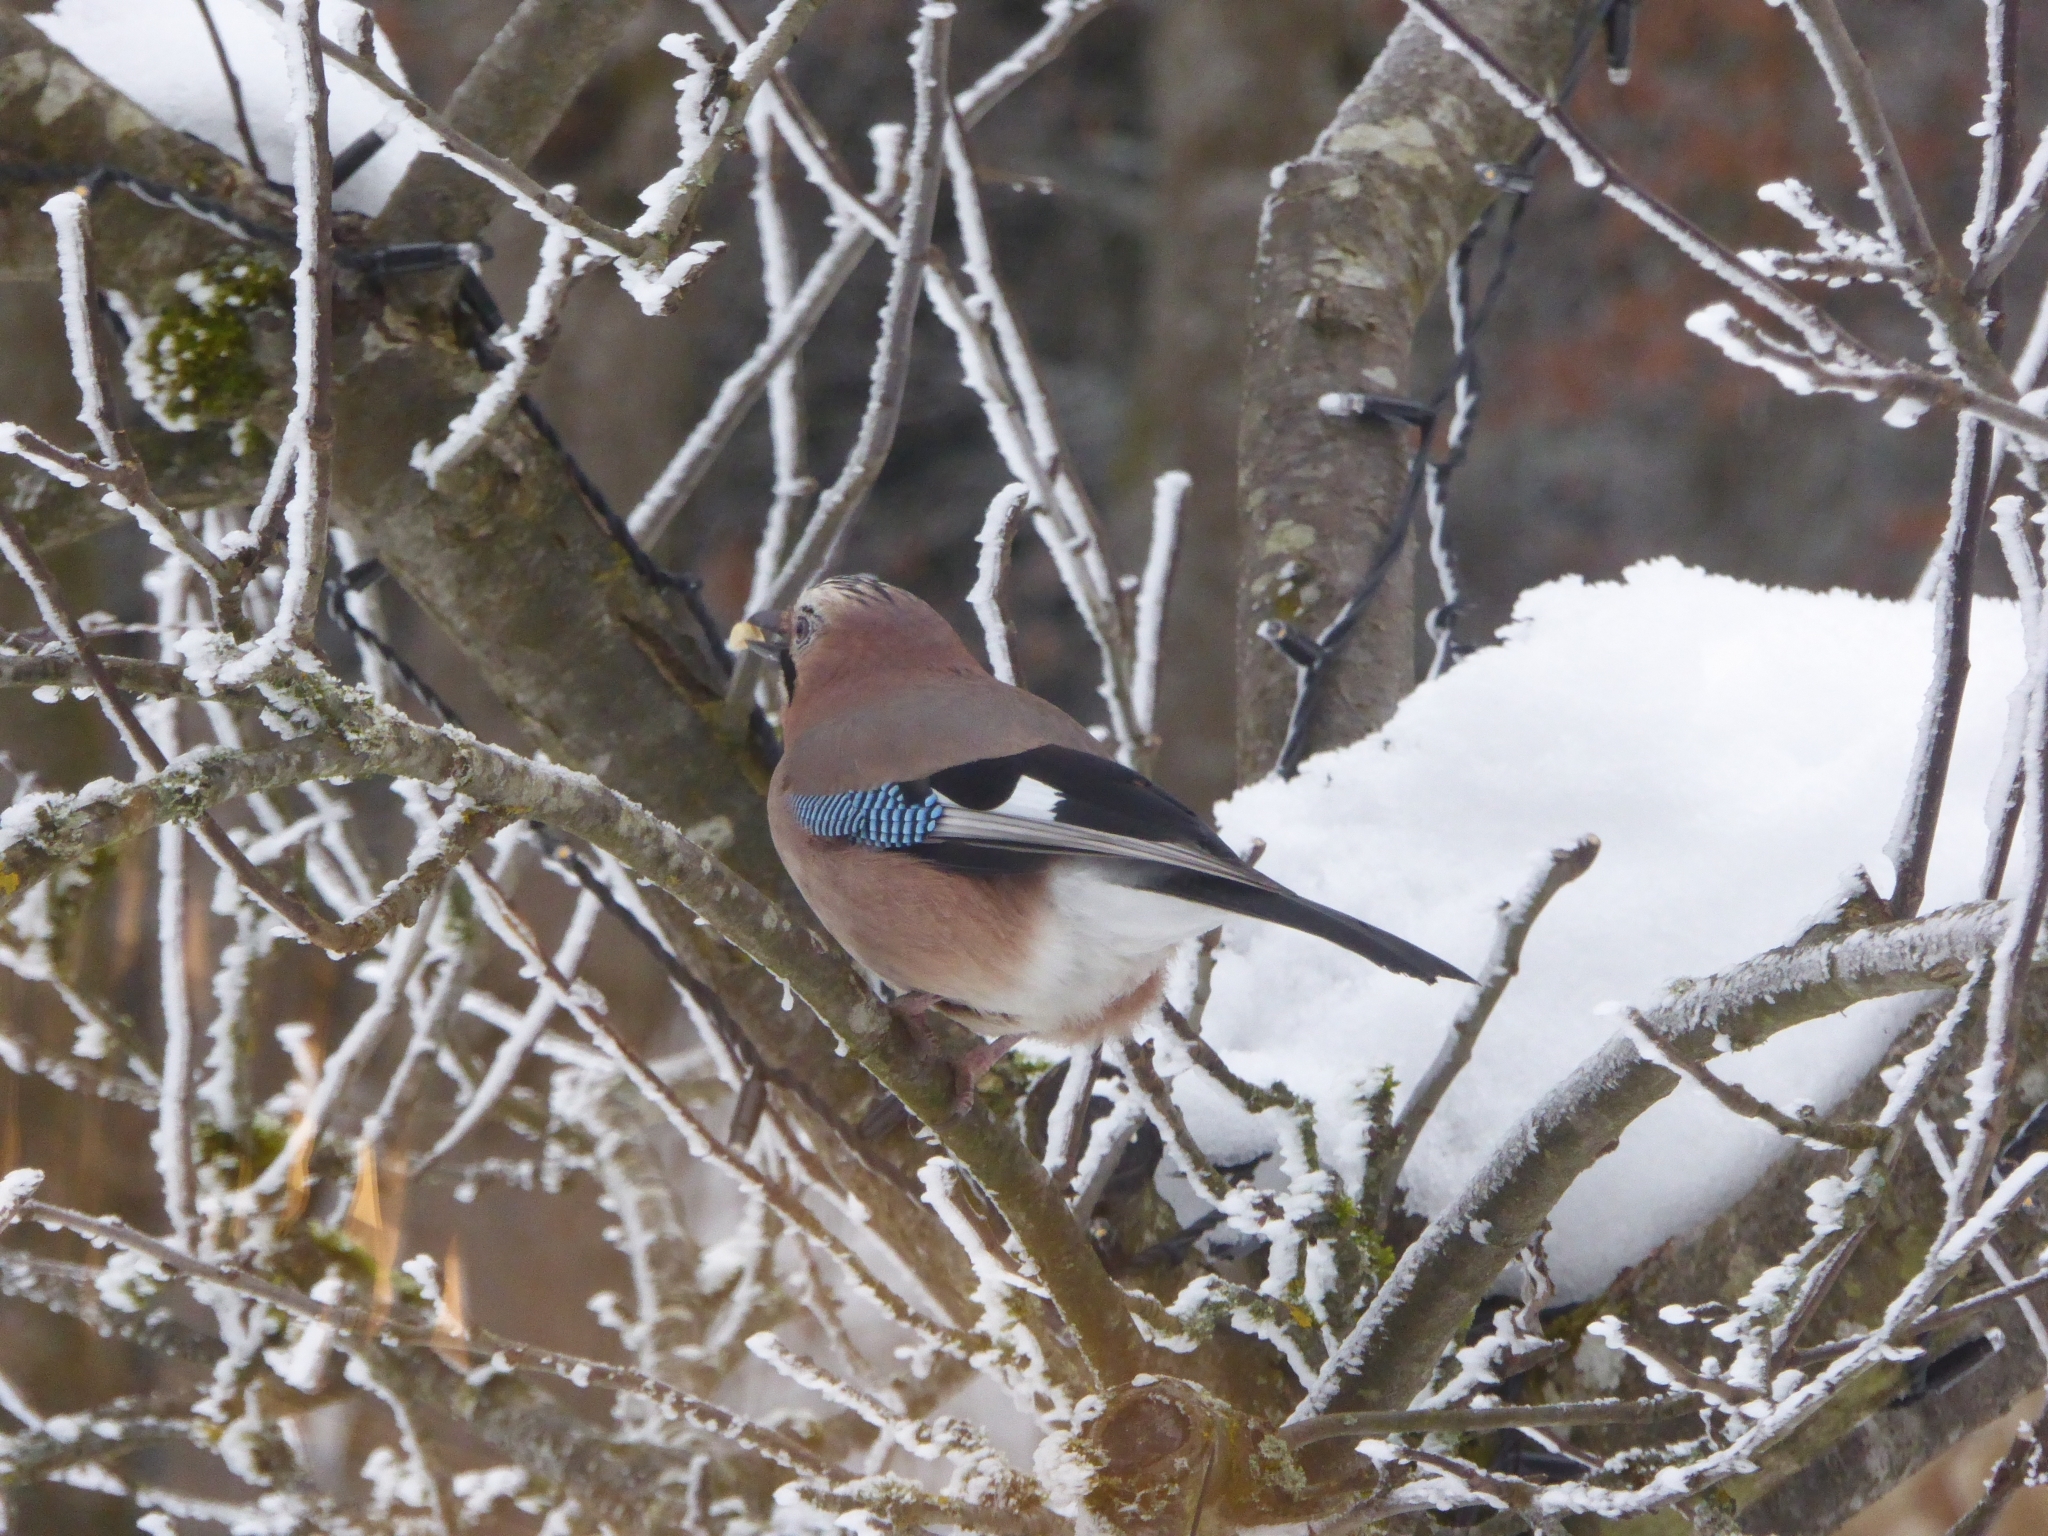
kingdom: Animalia
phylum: Chordata
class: Aves
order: Passeriformes
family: Corvidae
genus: Garrulus
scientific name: Garrulus glandarius
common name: Eurasian jay
